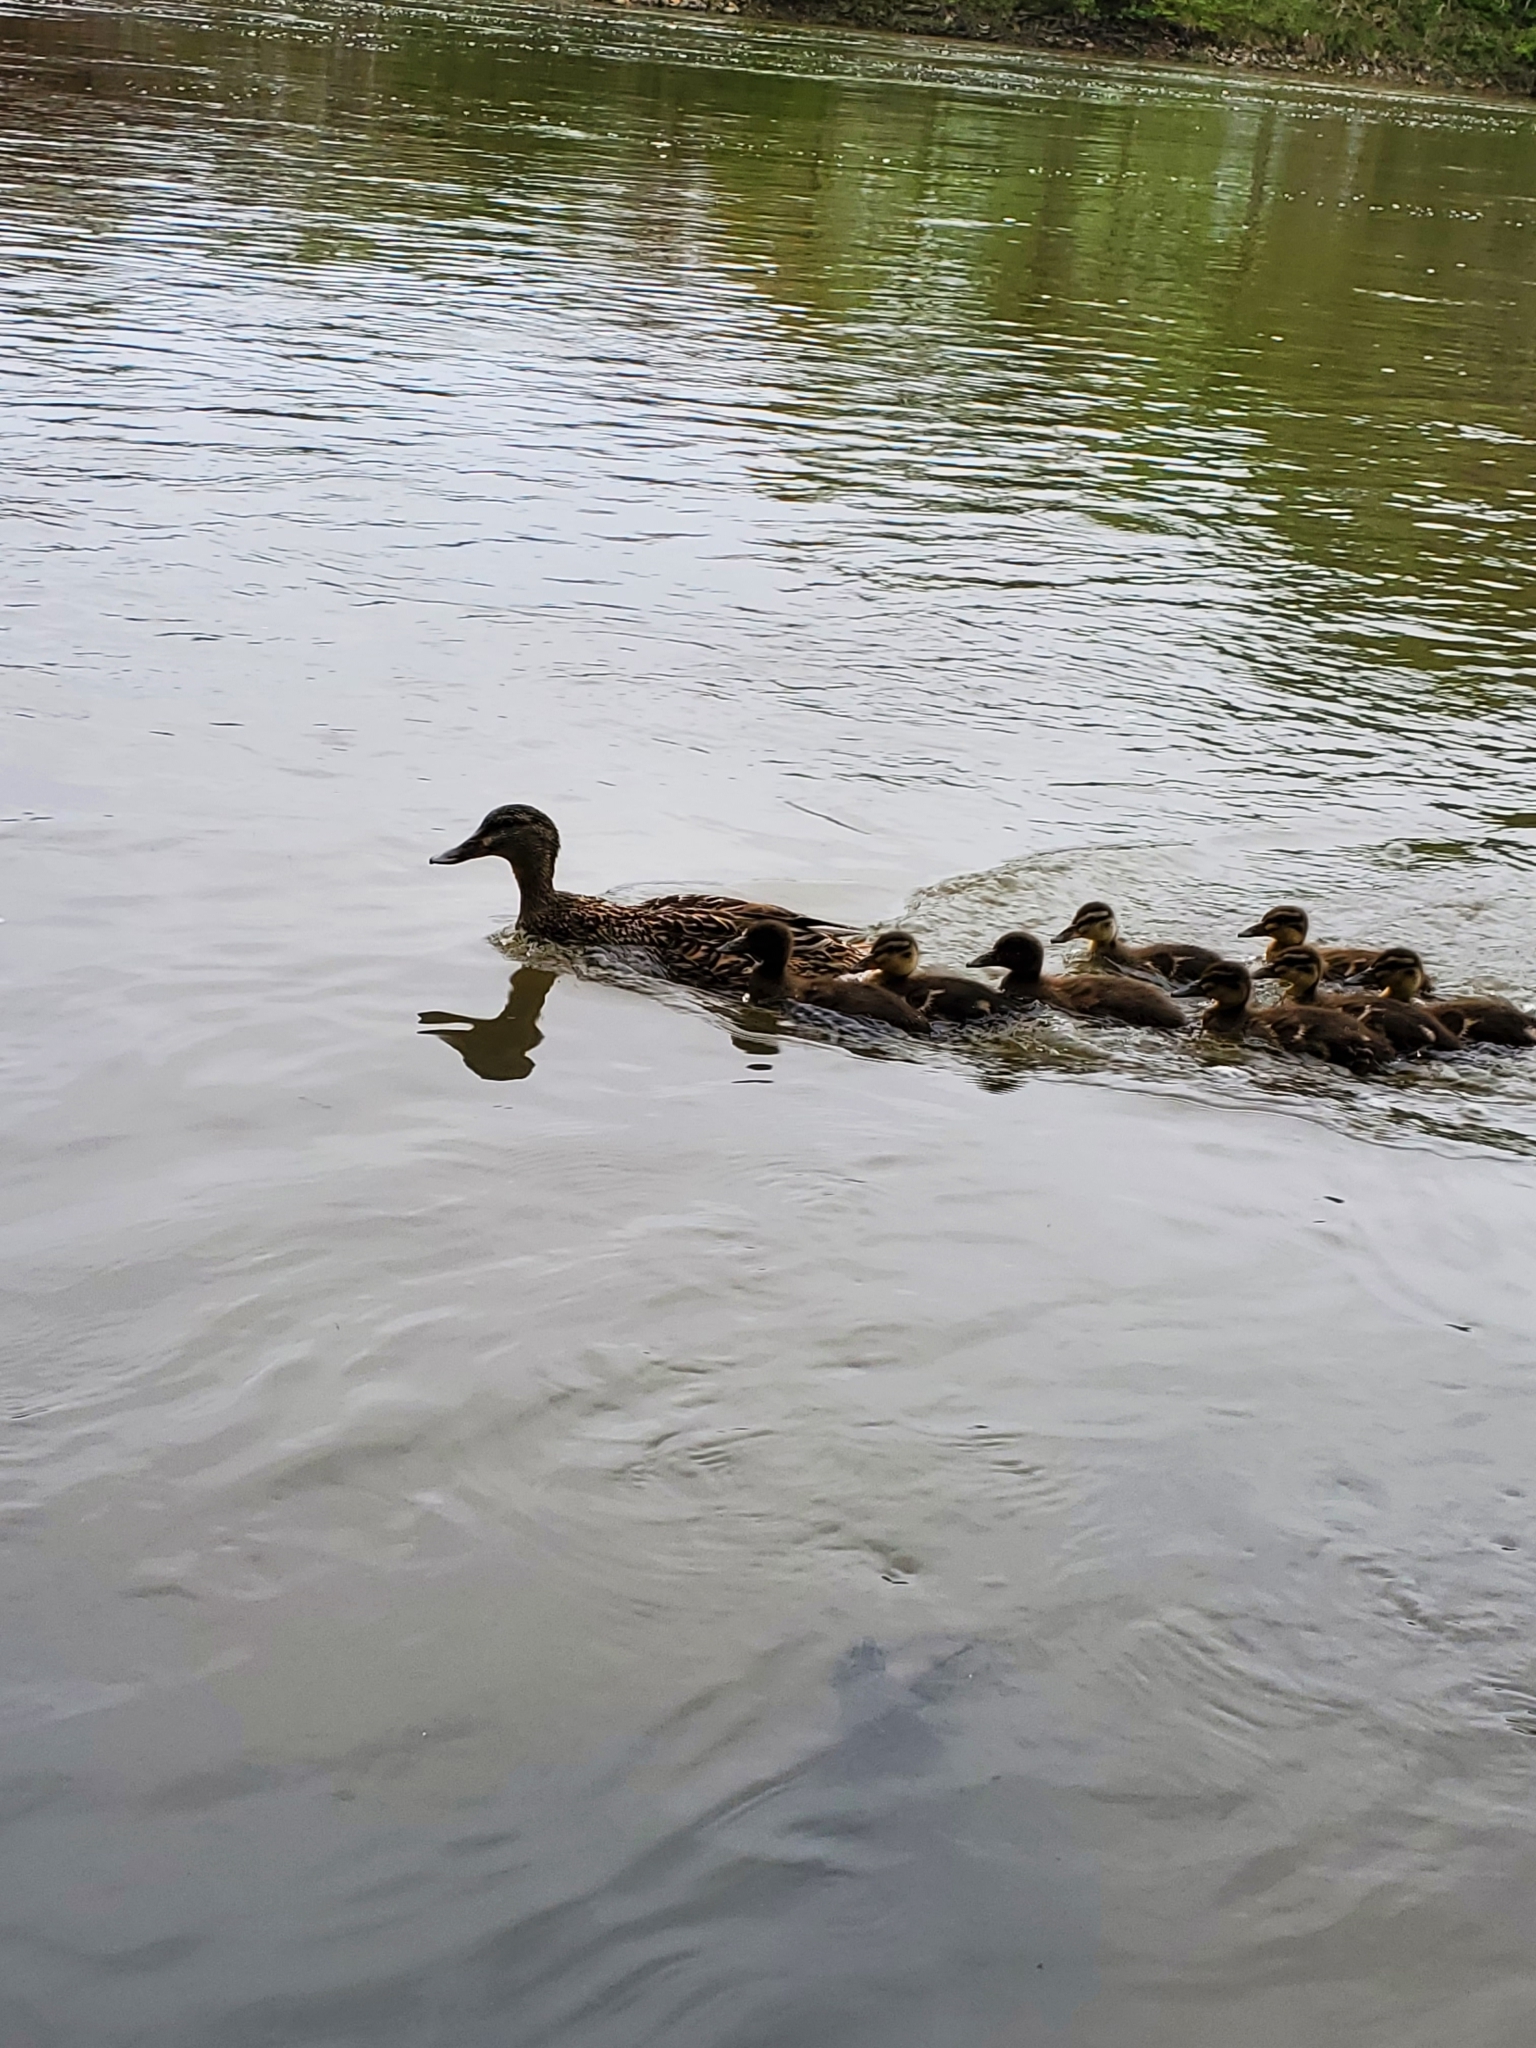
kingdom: Animalia
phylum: Chordata
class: Aves
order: Anseriformes
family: Anatidae
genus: Anas
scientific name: Anas platyrhynchos
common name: Mallard
